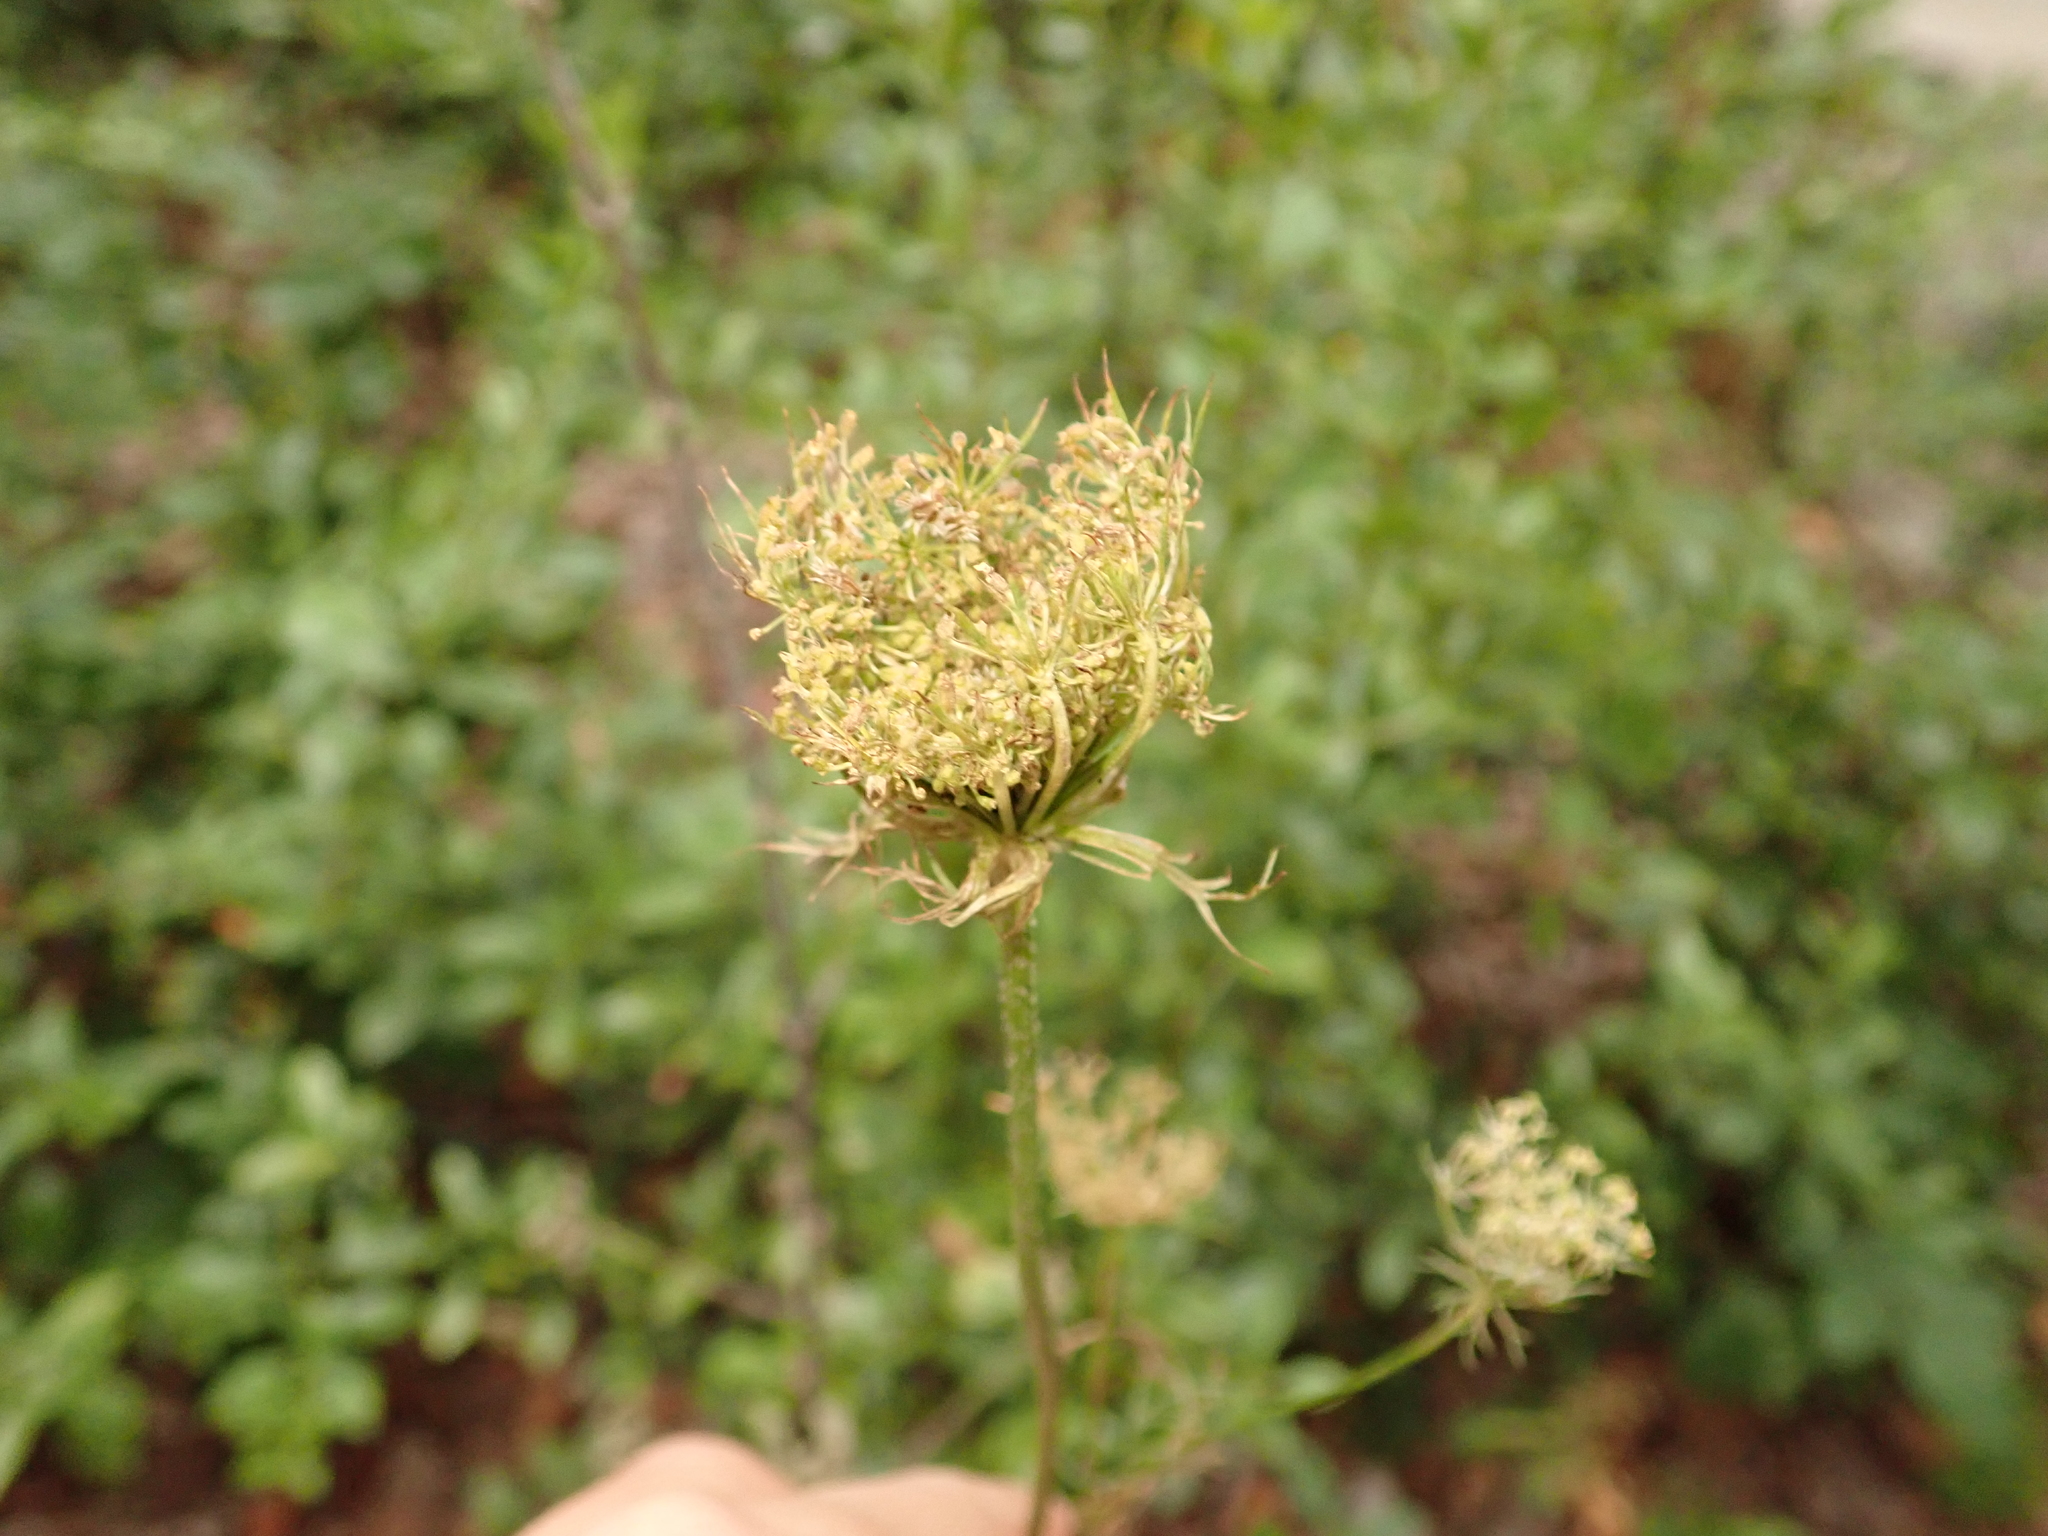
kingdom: Plantae
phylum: Tracheophyta
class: Magnoliopsida
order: Apiales
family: Apiaceae
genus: Daucus
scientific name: Daucus carota
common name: Wild carrot
